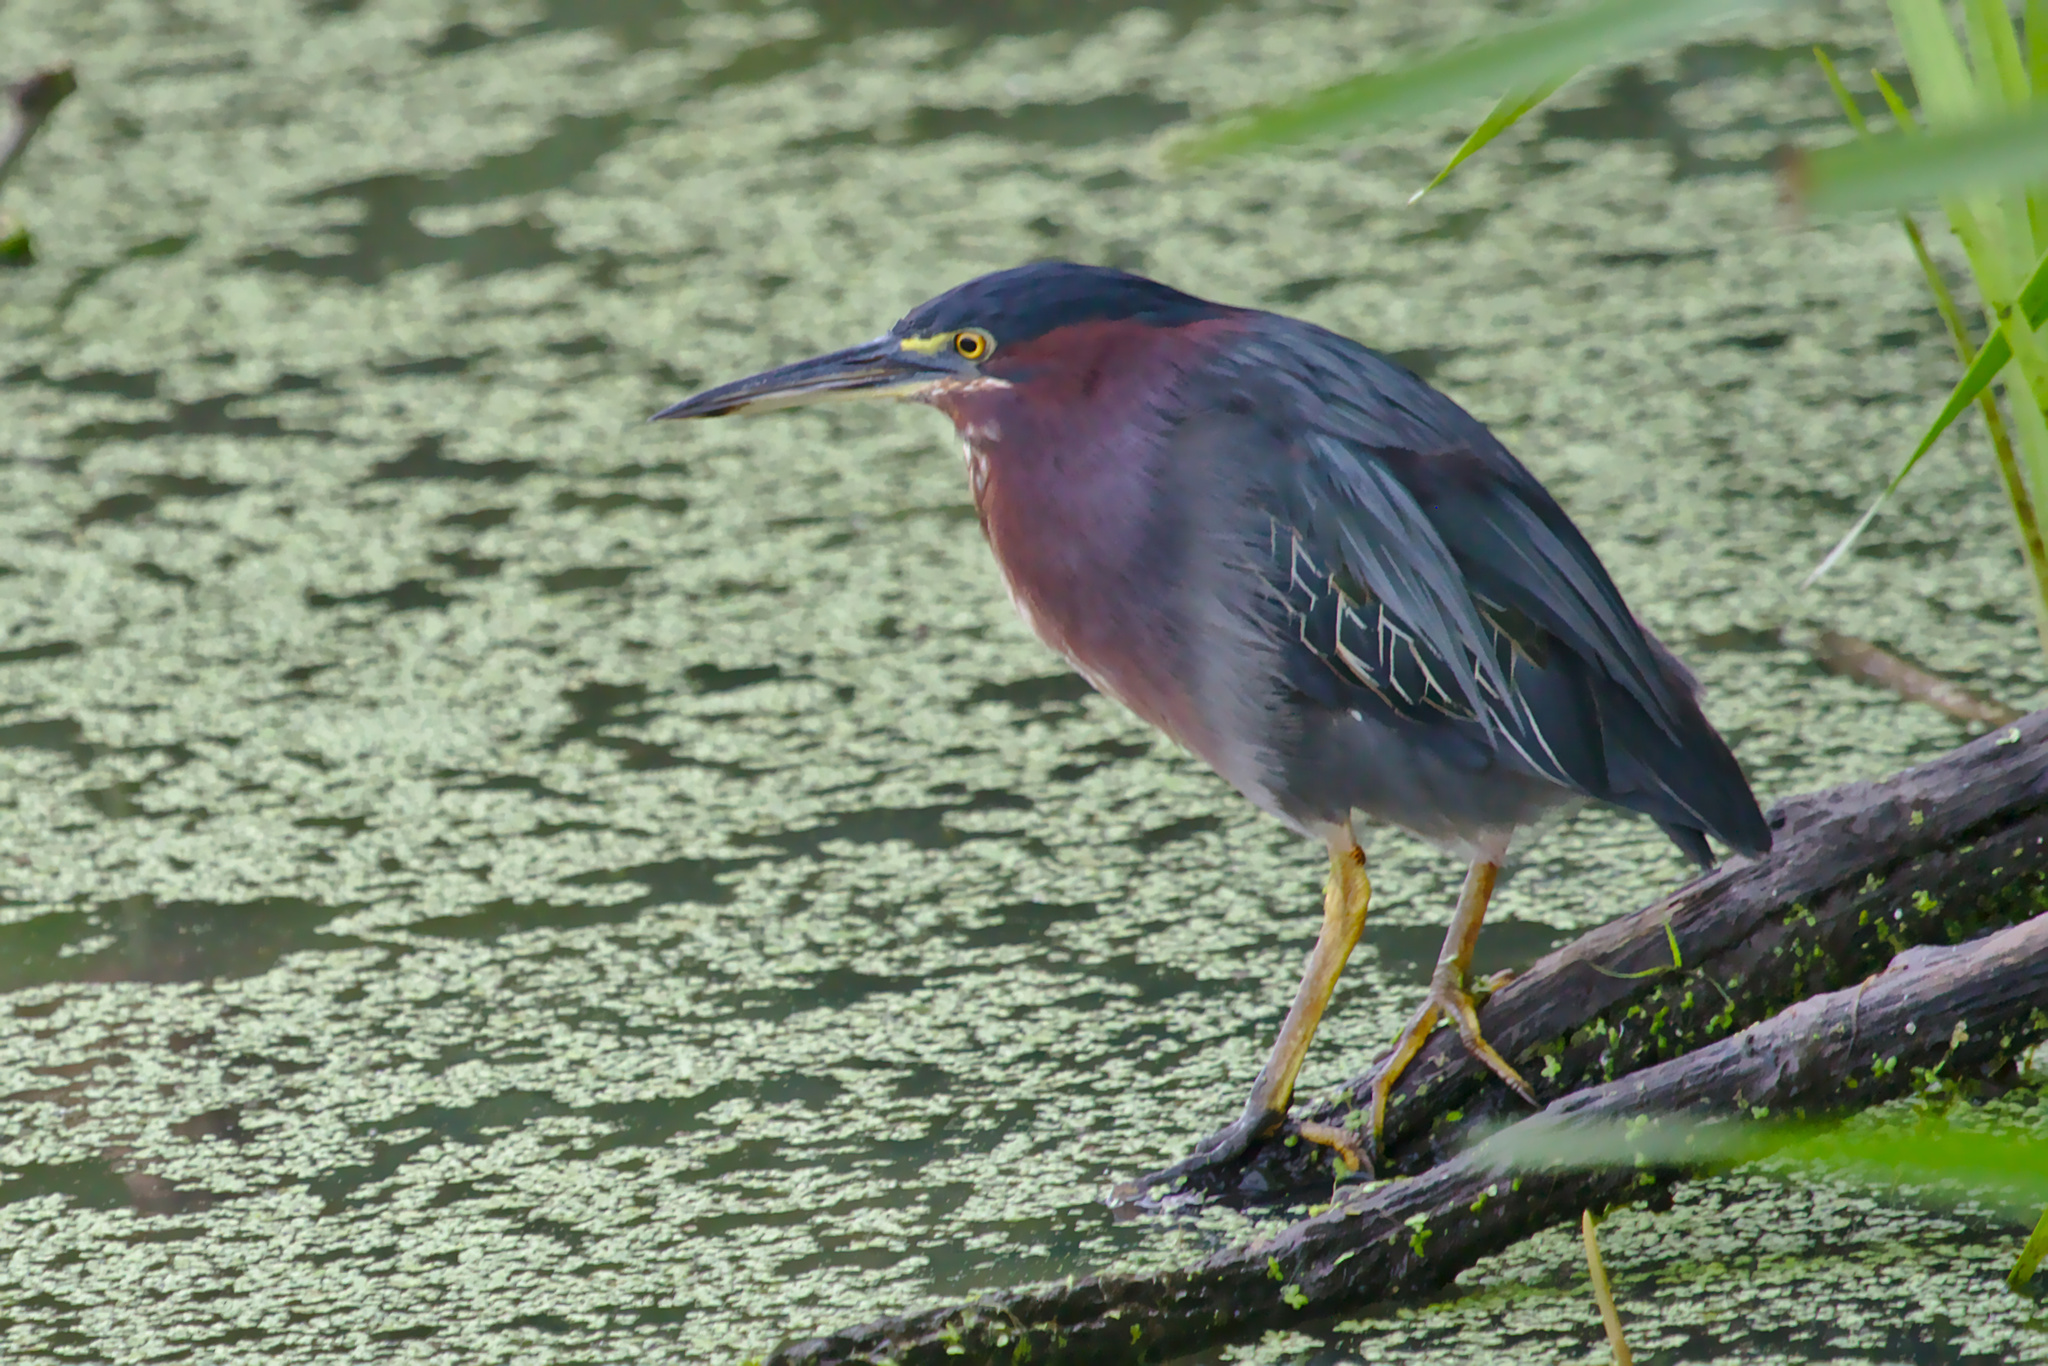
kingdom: Animalia
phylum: Chordata
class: Aves
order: Pelecaniformes
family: Ardeidae
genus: Butorides
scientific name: Butorides virescens
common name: Green heron
